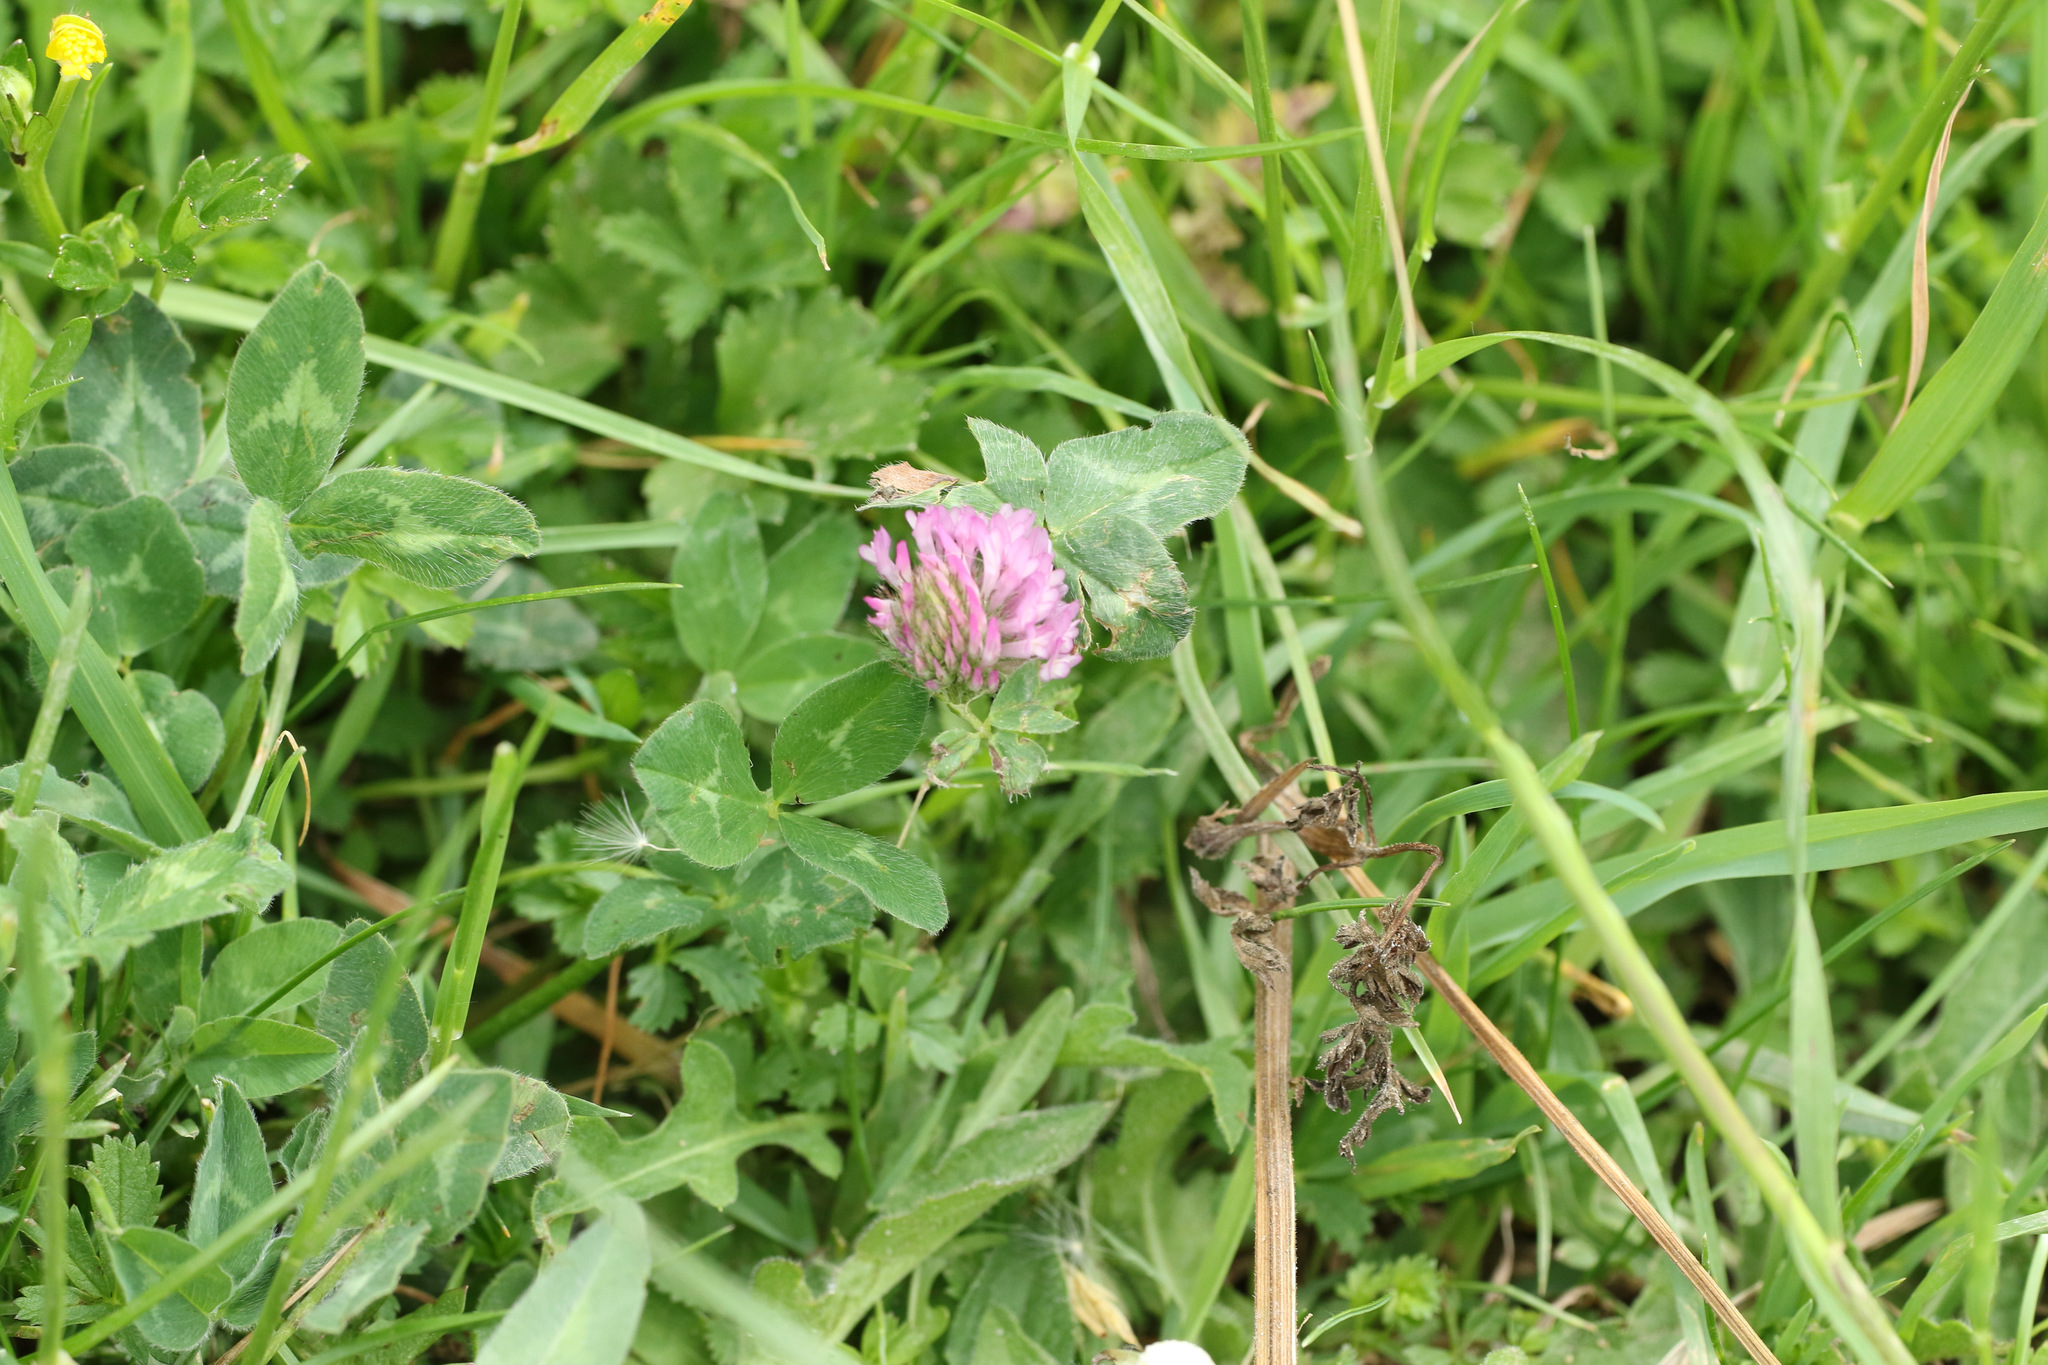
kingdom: Plantae
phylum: Tracheophyta
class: Magnoliopsida
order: Fabales
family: Fabaceae
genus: Trifolium
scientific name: Trifolium pratense
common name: Red clover
